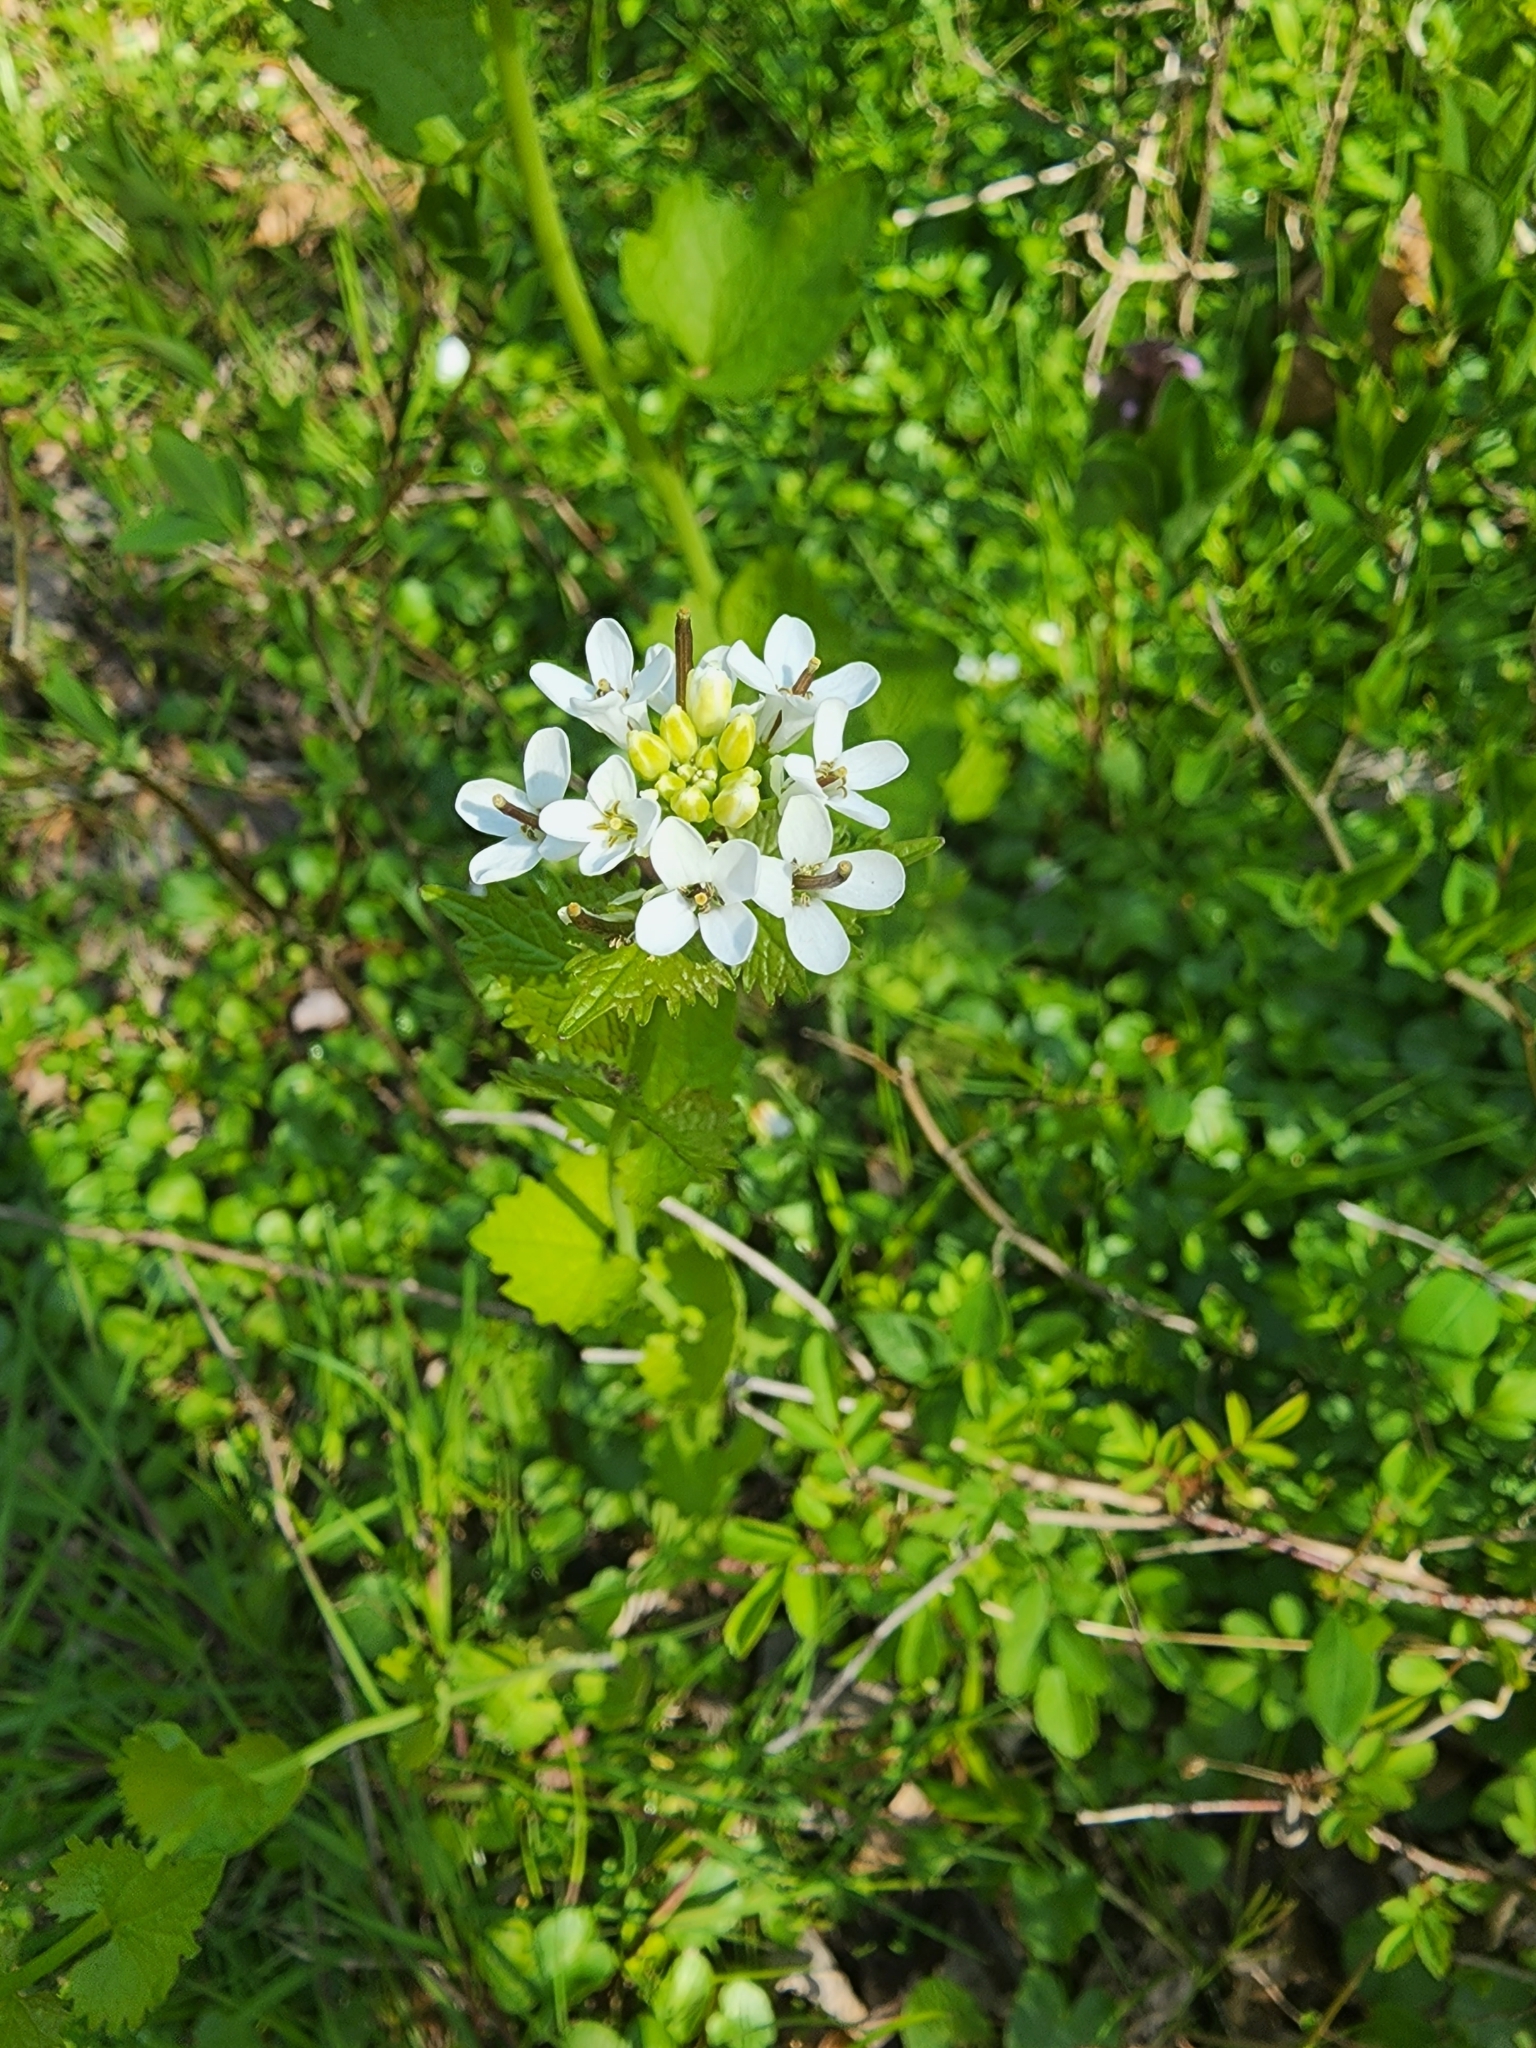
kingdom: Plantae
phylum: Tracheophyta
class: Magnoliopsida
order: Brassicales
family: Brassicaceae
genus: Alliaria
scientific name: Alliaria petiolata
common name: Garlic mustard
